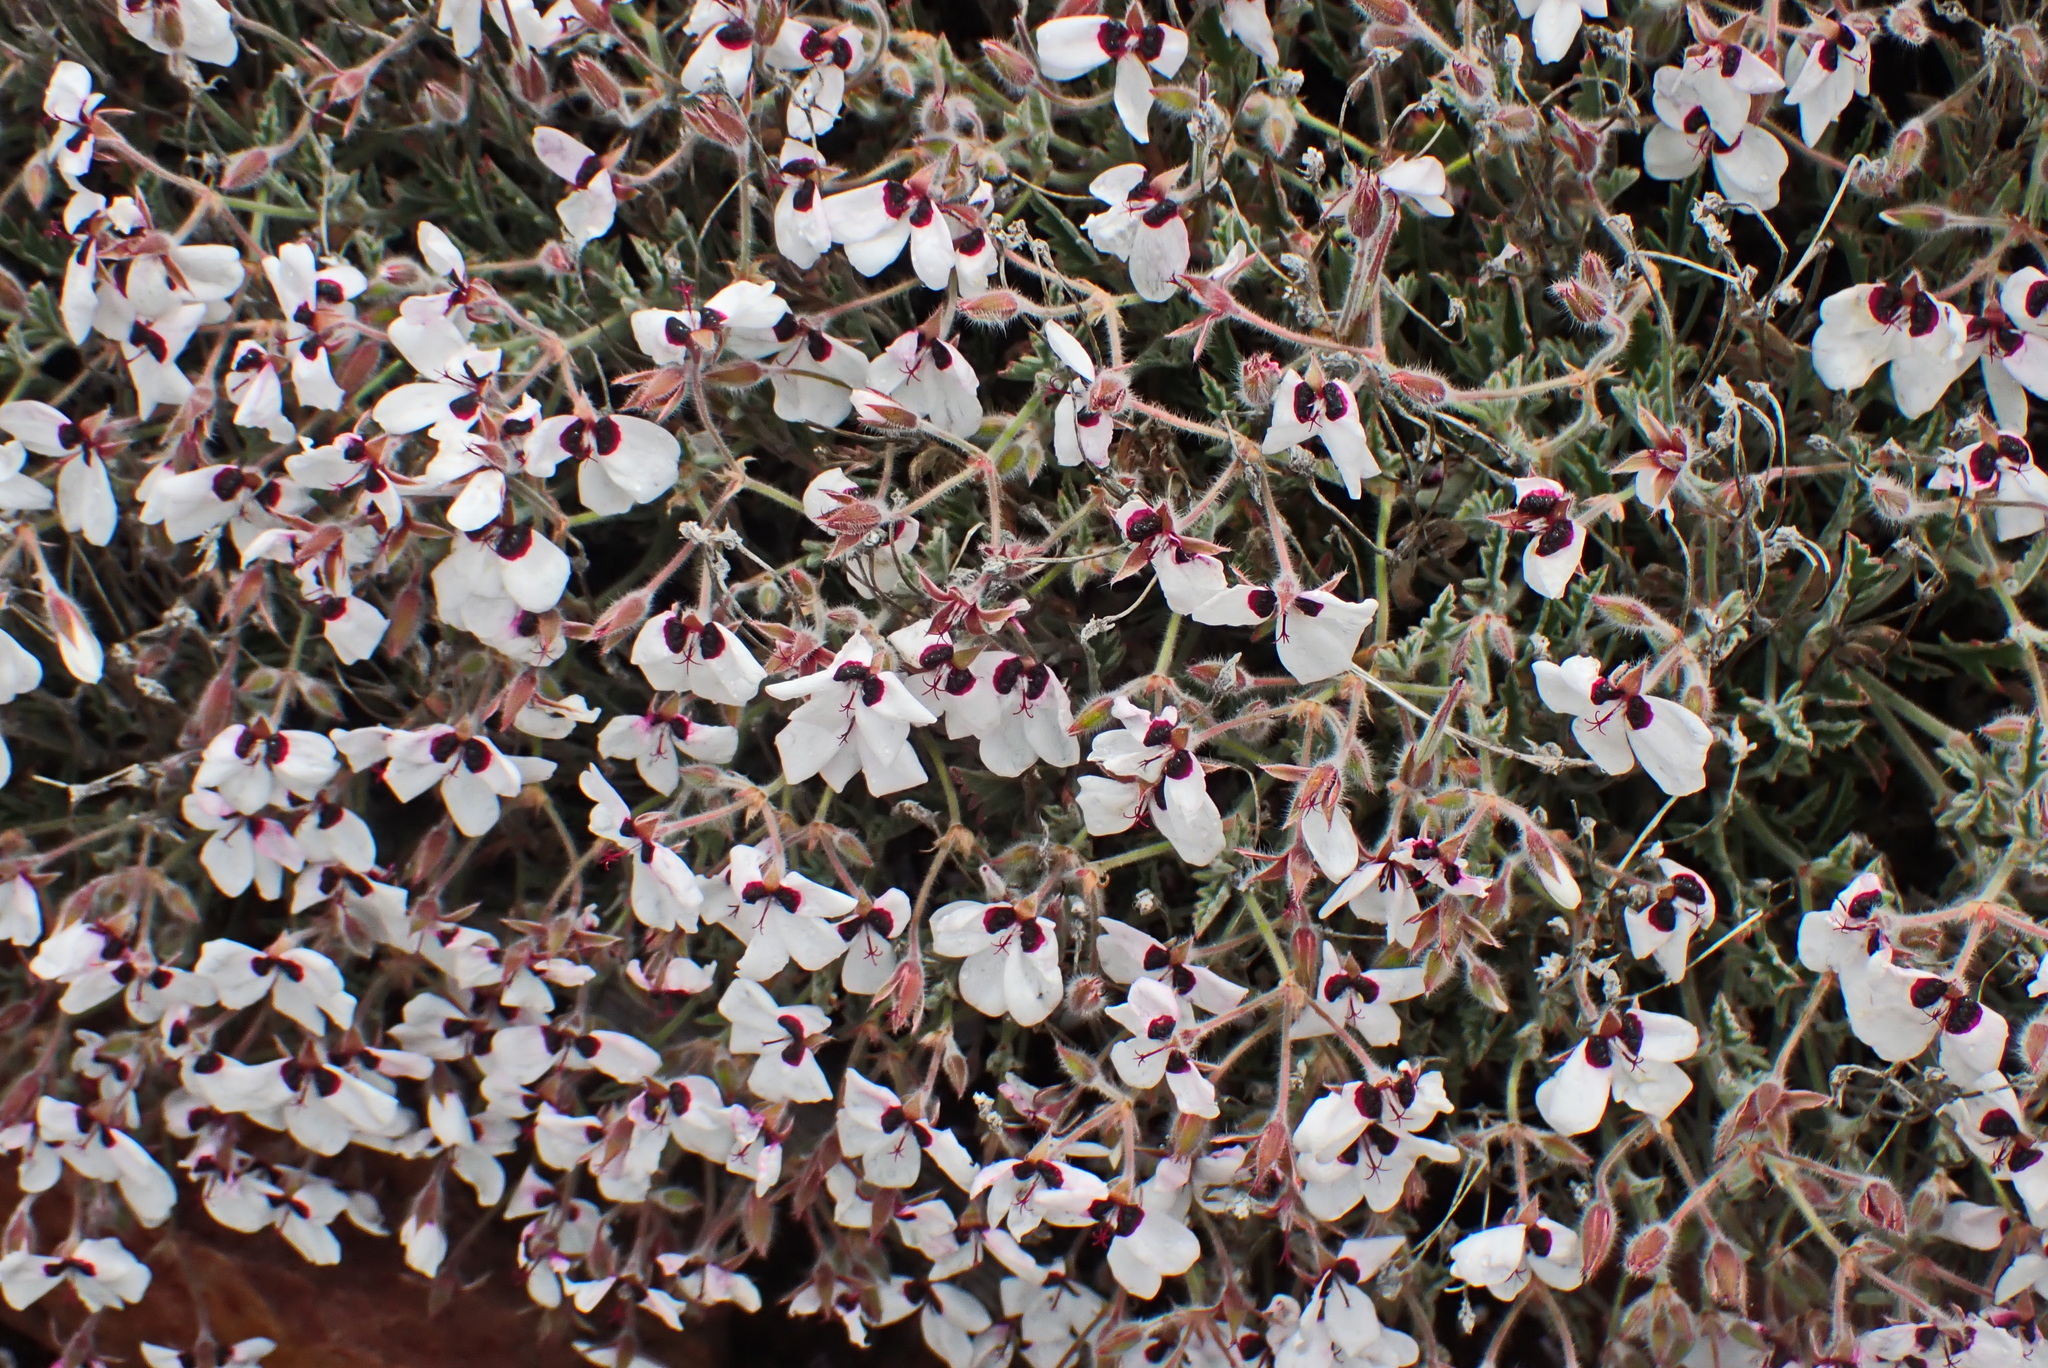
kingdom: Plantae
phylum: Tracheophyta
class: Magnoliopsida
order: Geraniales
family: Geraniaceae
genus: Pelargonium
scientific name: Pelargonium tricolor
